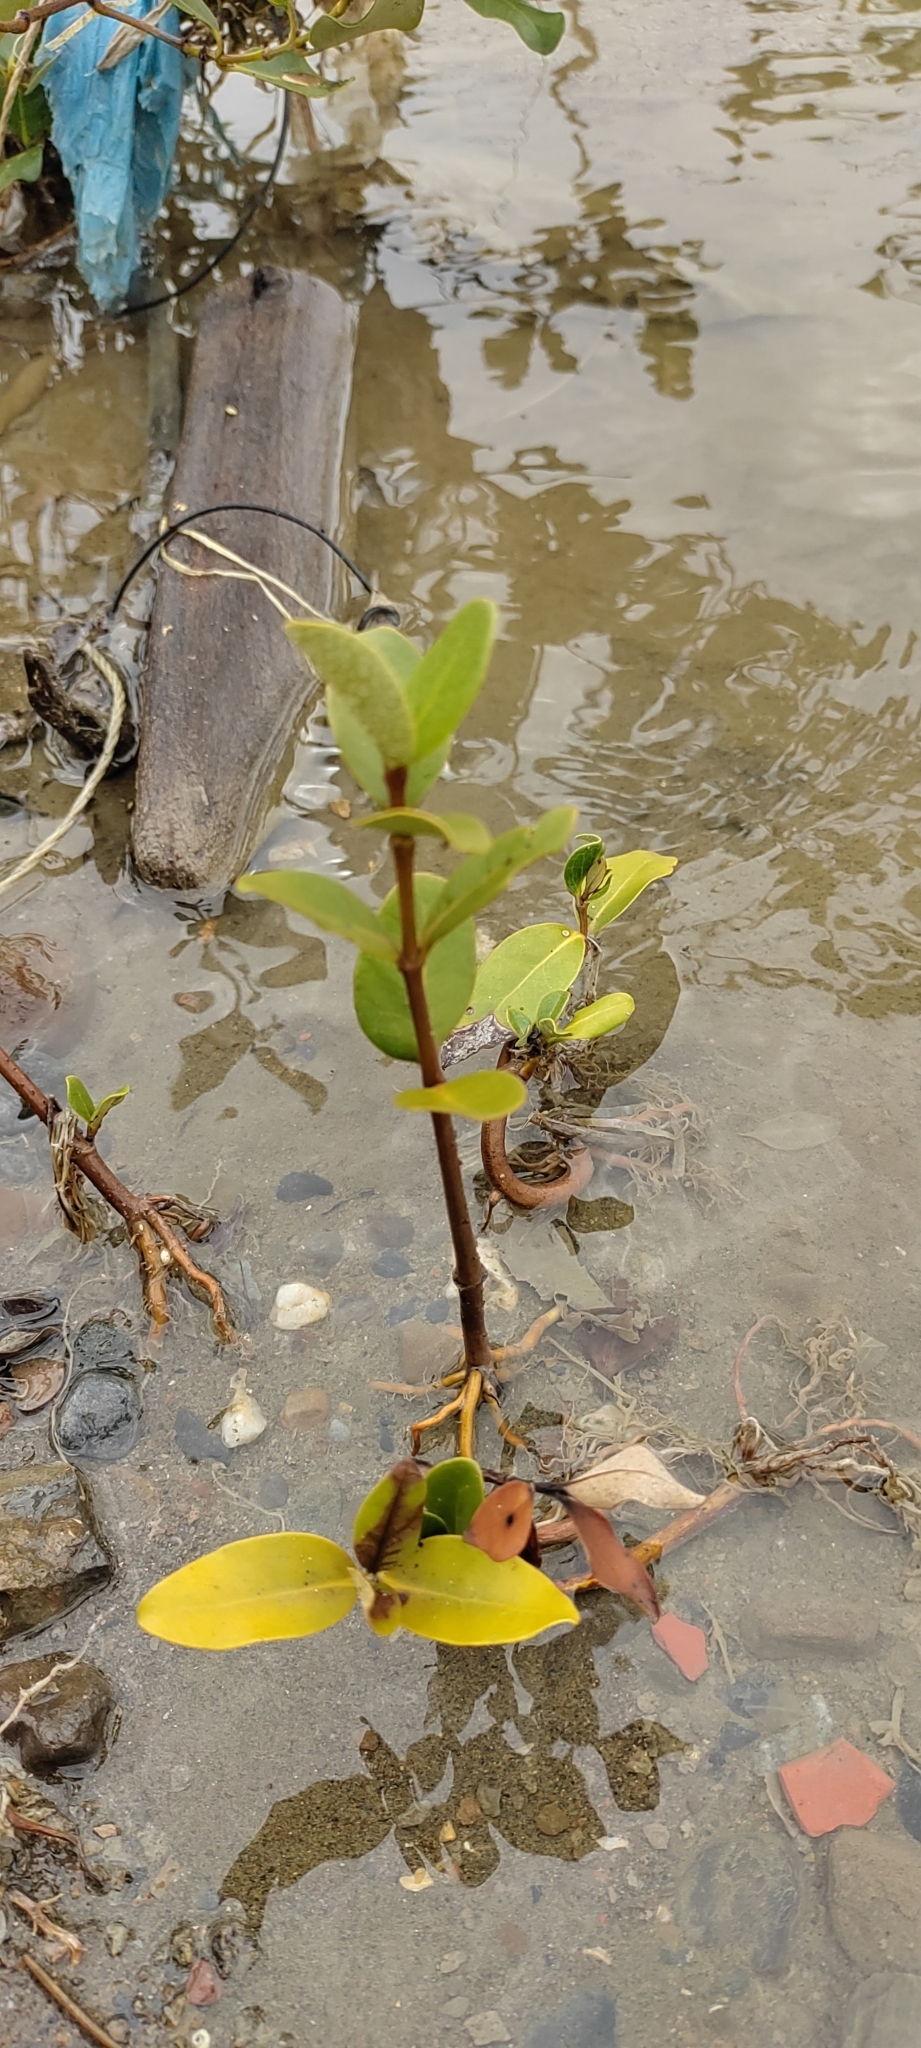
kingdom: Plantae
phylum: Tracheophyta
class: Magnoliopsida
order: Lamiales
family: Acanthaceae
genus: Avicennia
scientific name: Avicennia marina
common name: Gray mangrove
